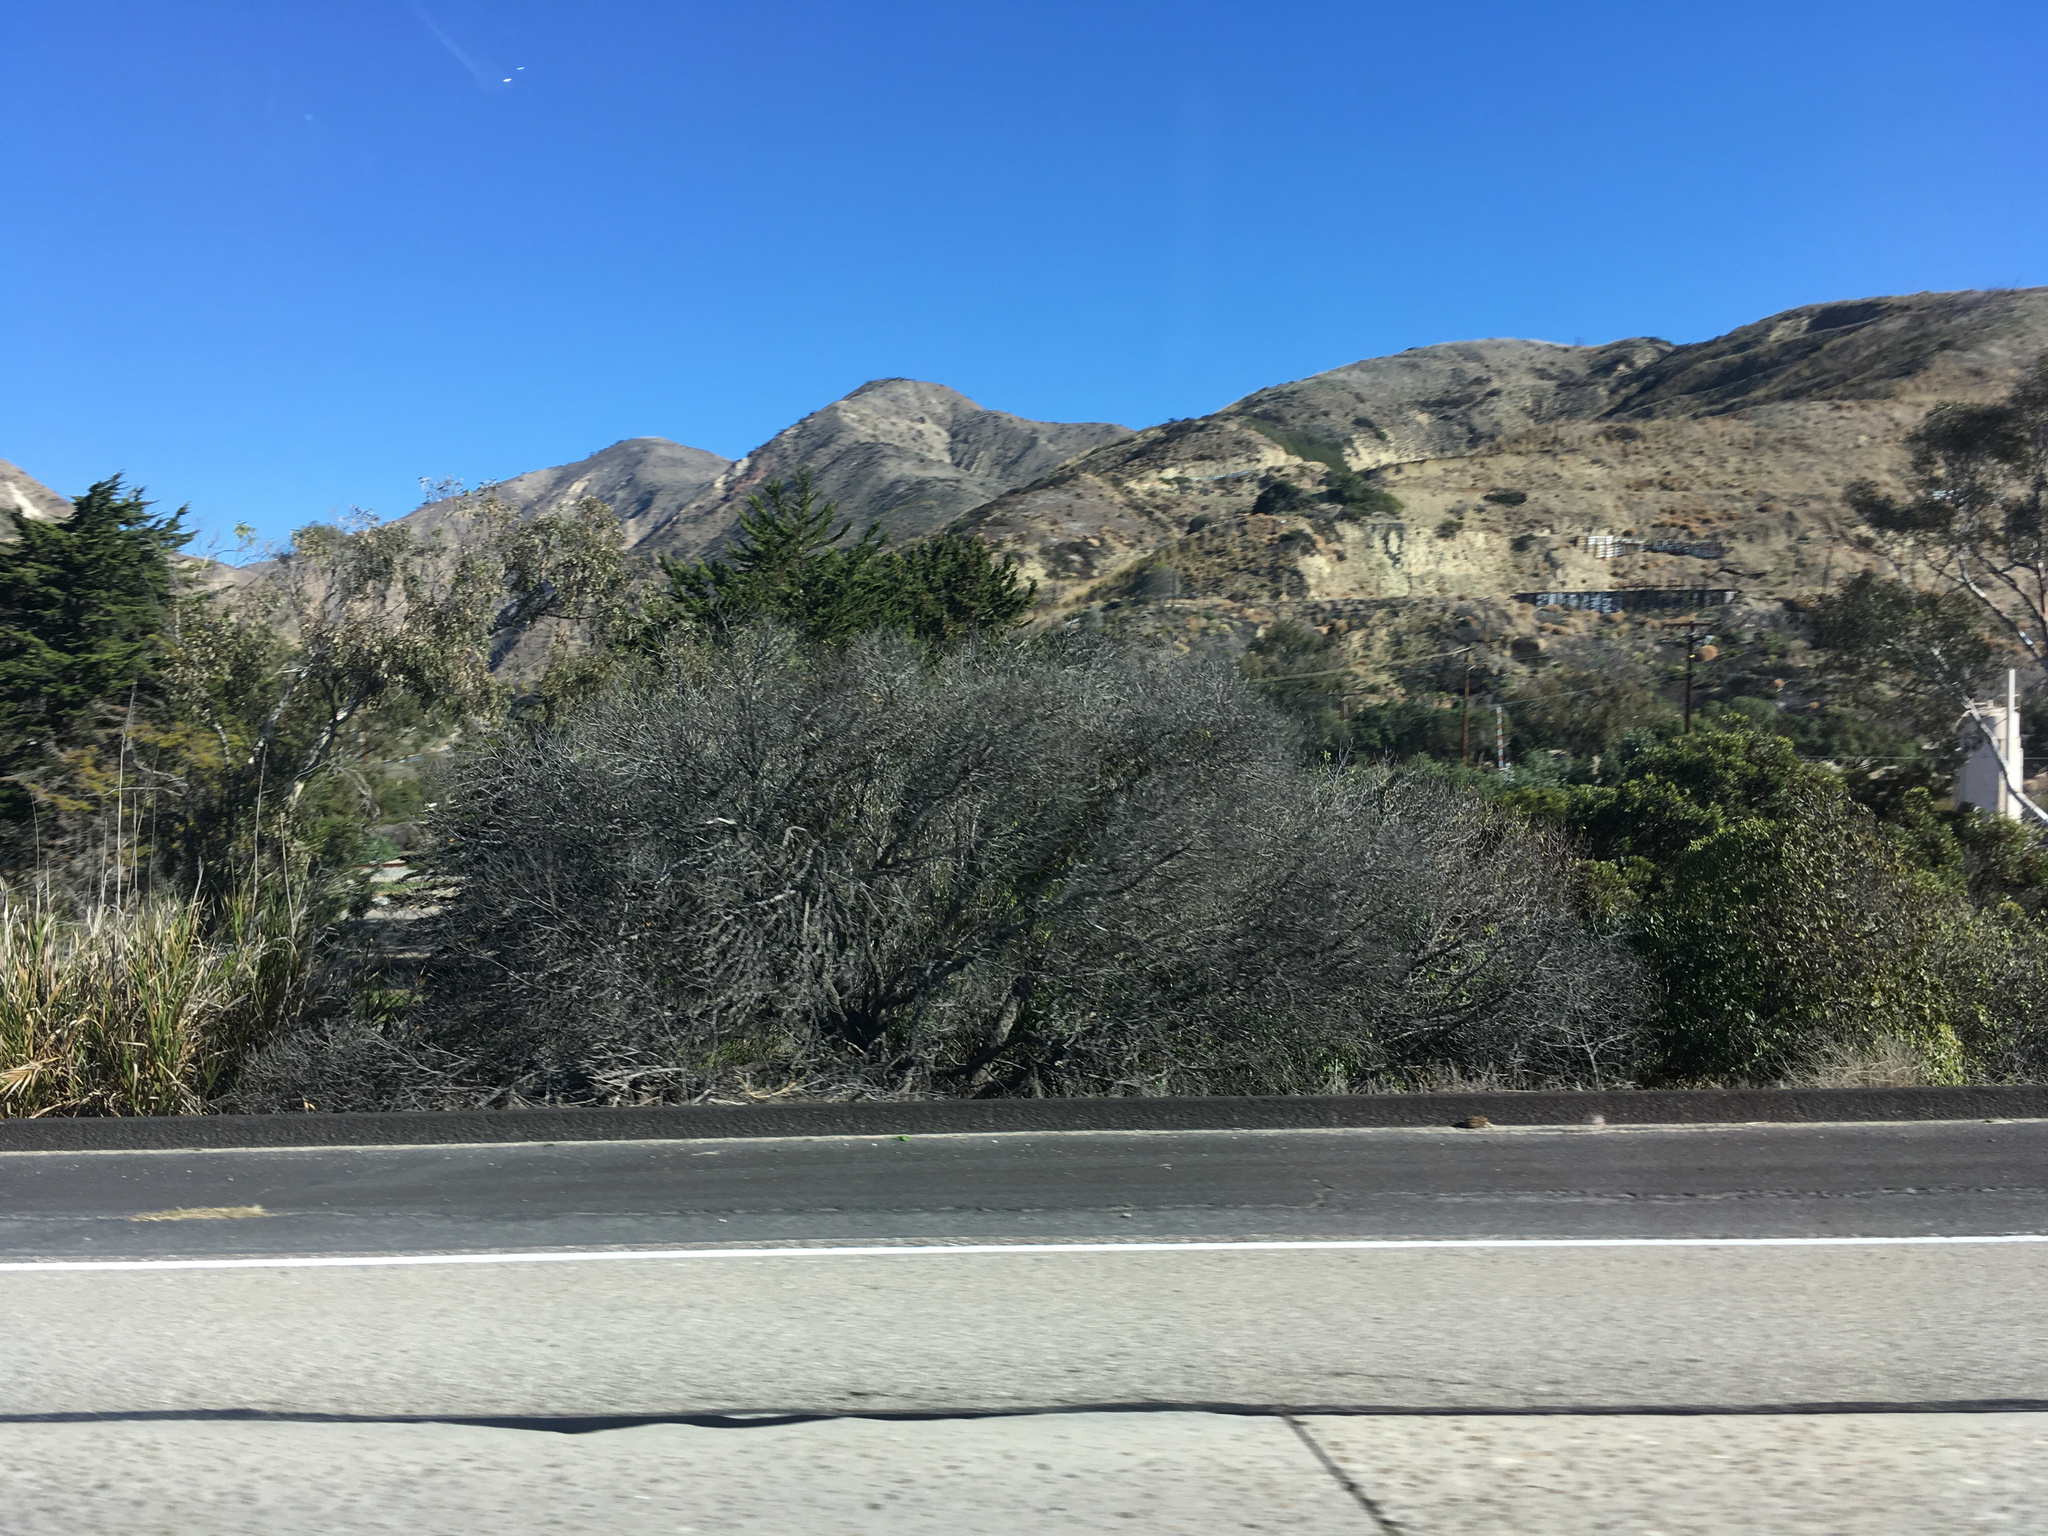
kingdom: Plantae
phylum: Tracheophyta
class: Magnoliopsida
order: Lamiales
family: Scrophulariaceae
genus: Myoporum
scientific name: Myoporum laetum
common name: Ngaio tree
